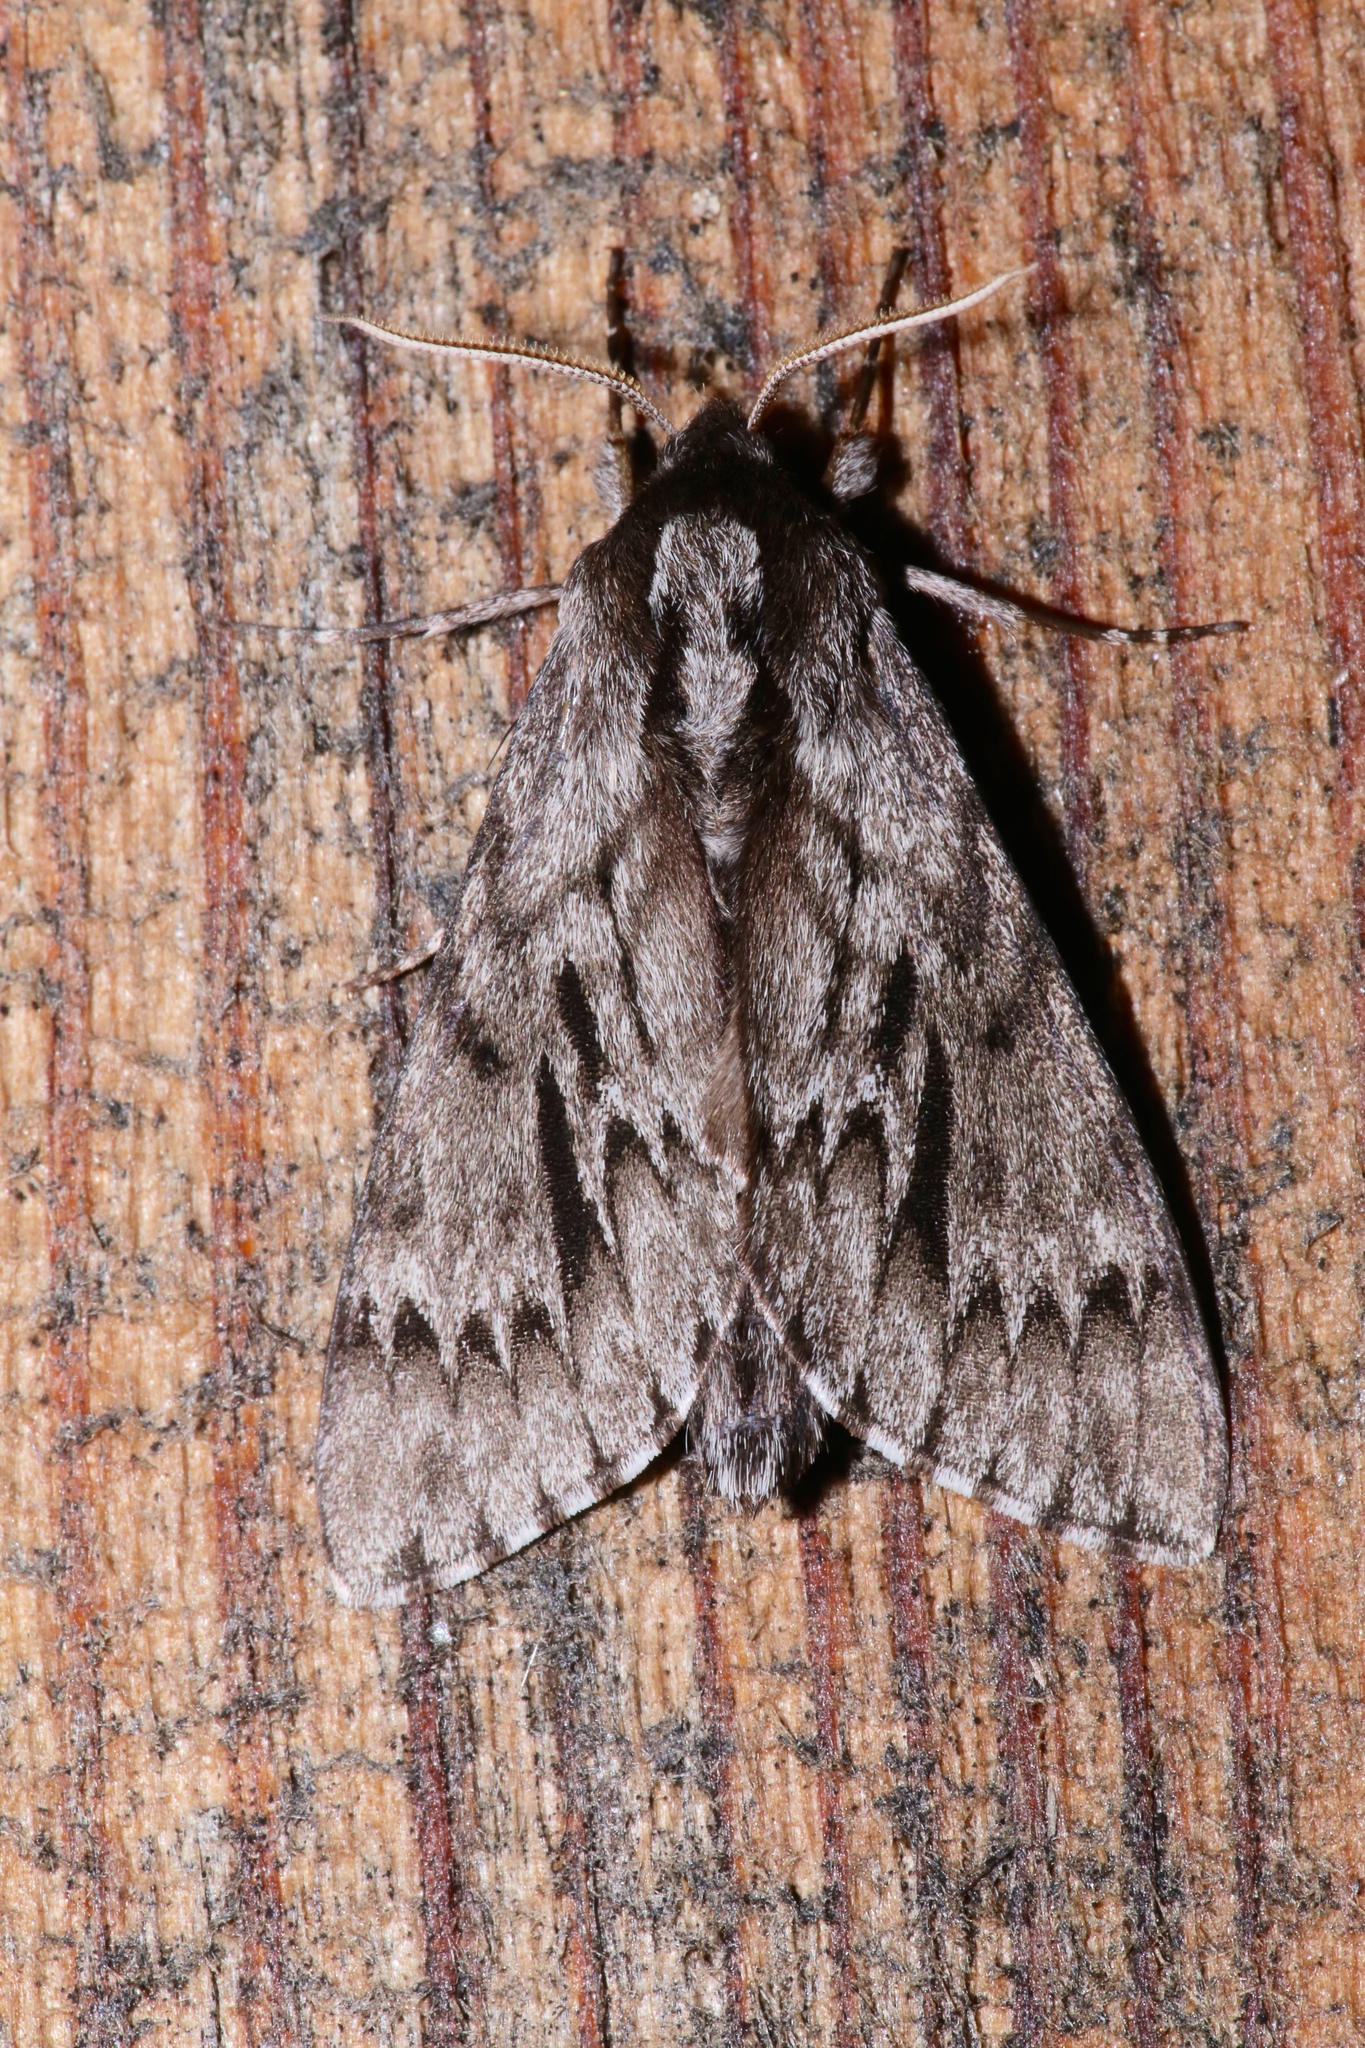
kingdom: Animalia
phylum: Arthropoda
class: Insecta
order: Lepidoptera
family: Sphingidae
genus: Lapara
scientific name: Lapara bombycoides
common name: Northern pine sphinx
